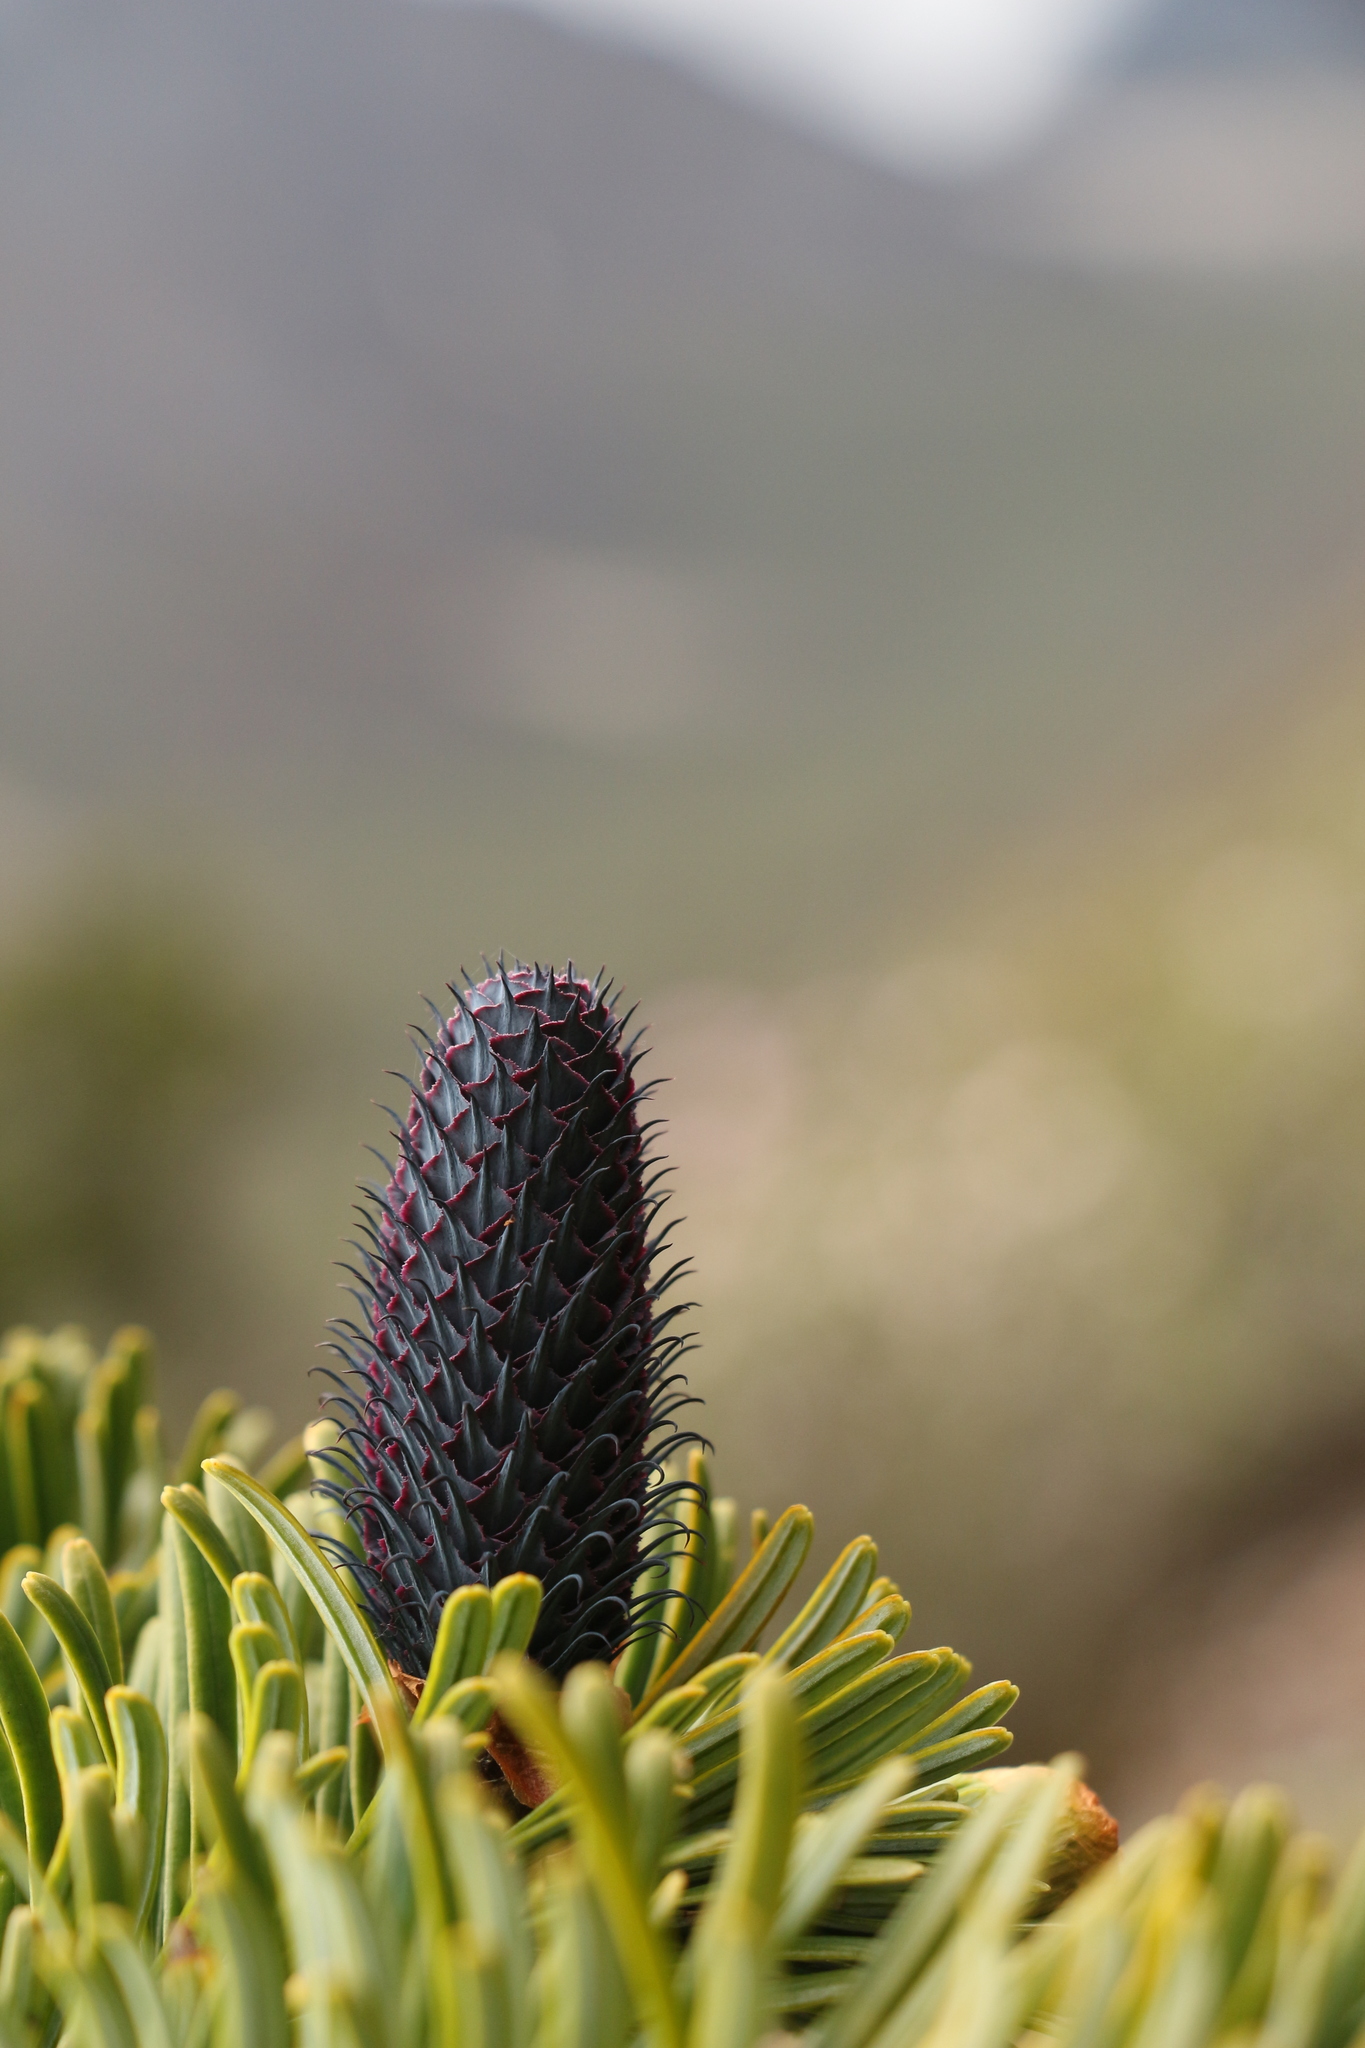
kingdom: Plantae
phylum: Tracheophyta
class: Pinopsida
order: Pinales
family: Pinaceae
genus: Abies
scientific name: Abies densa
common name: Sikkim fir
